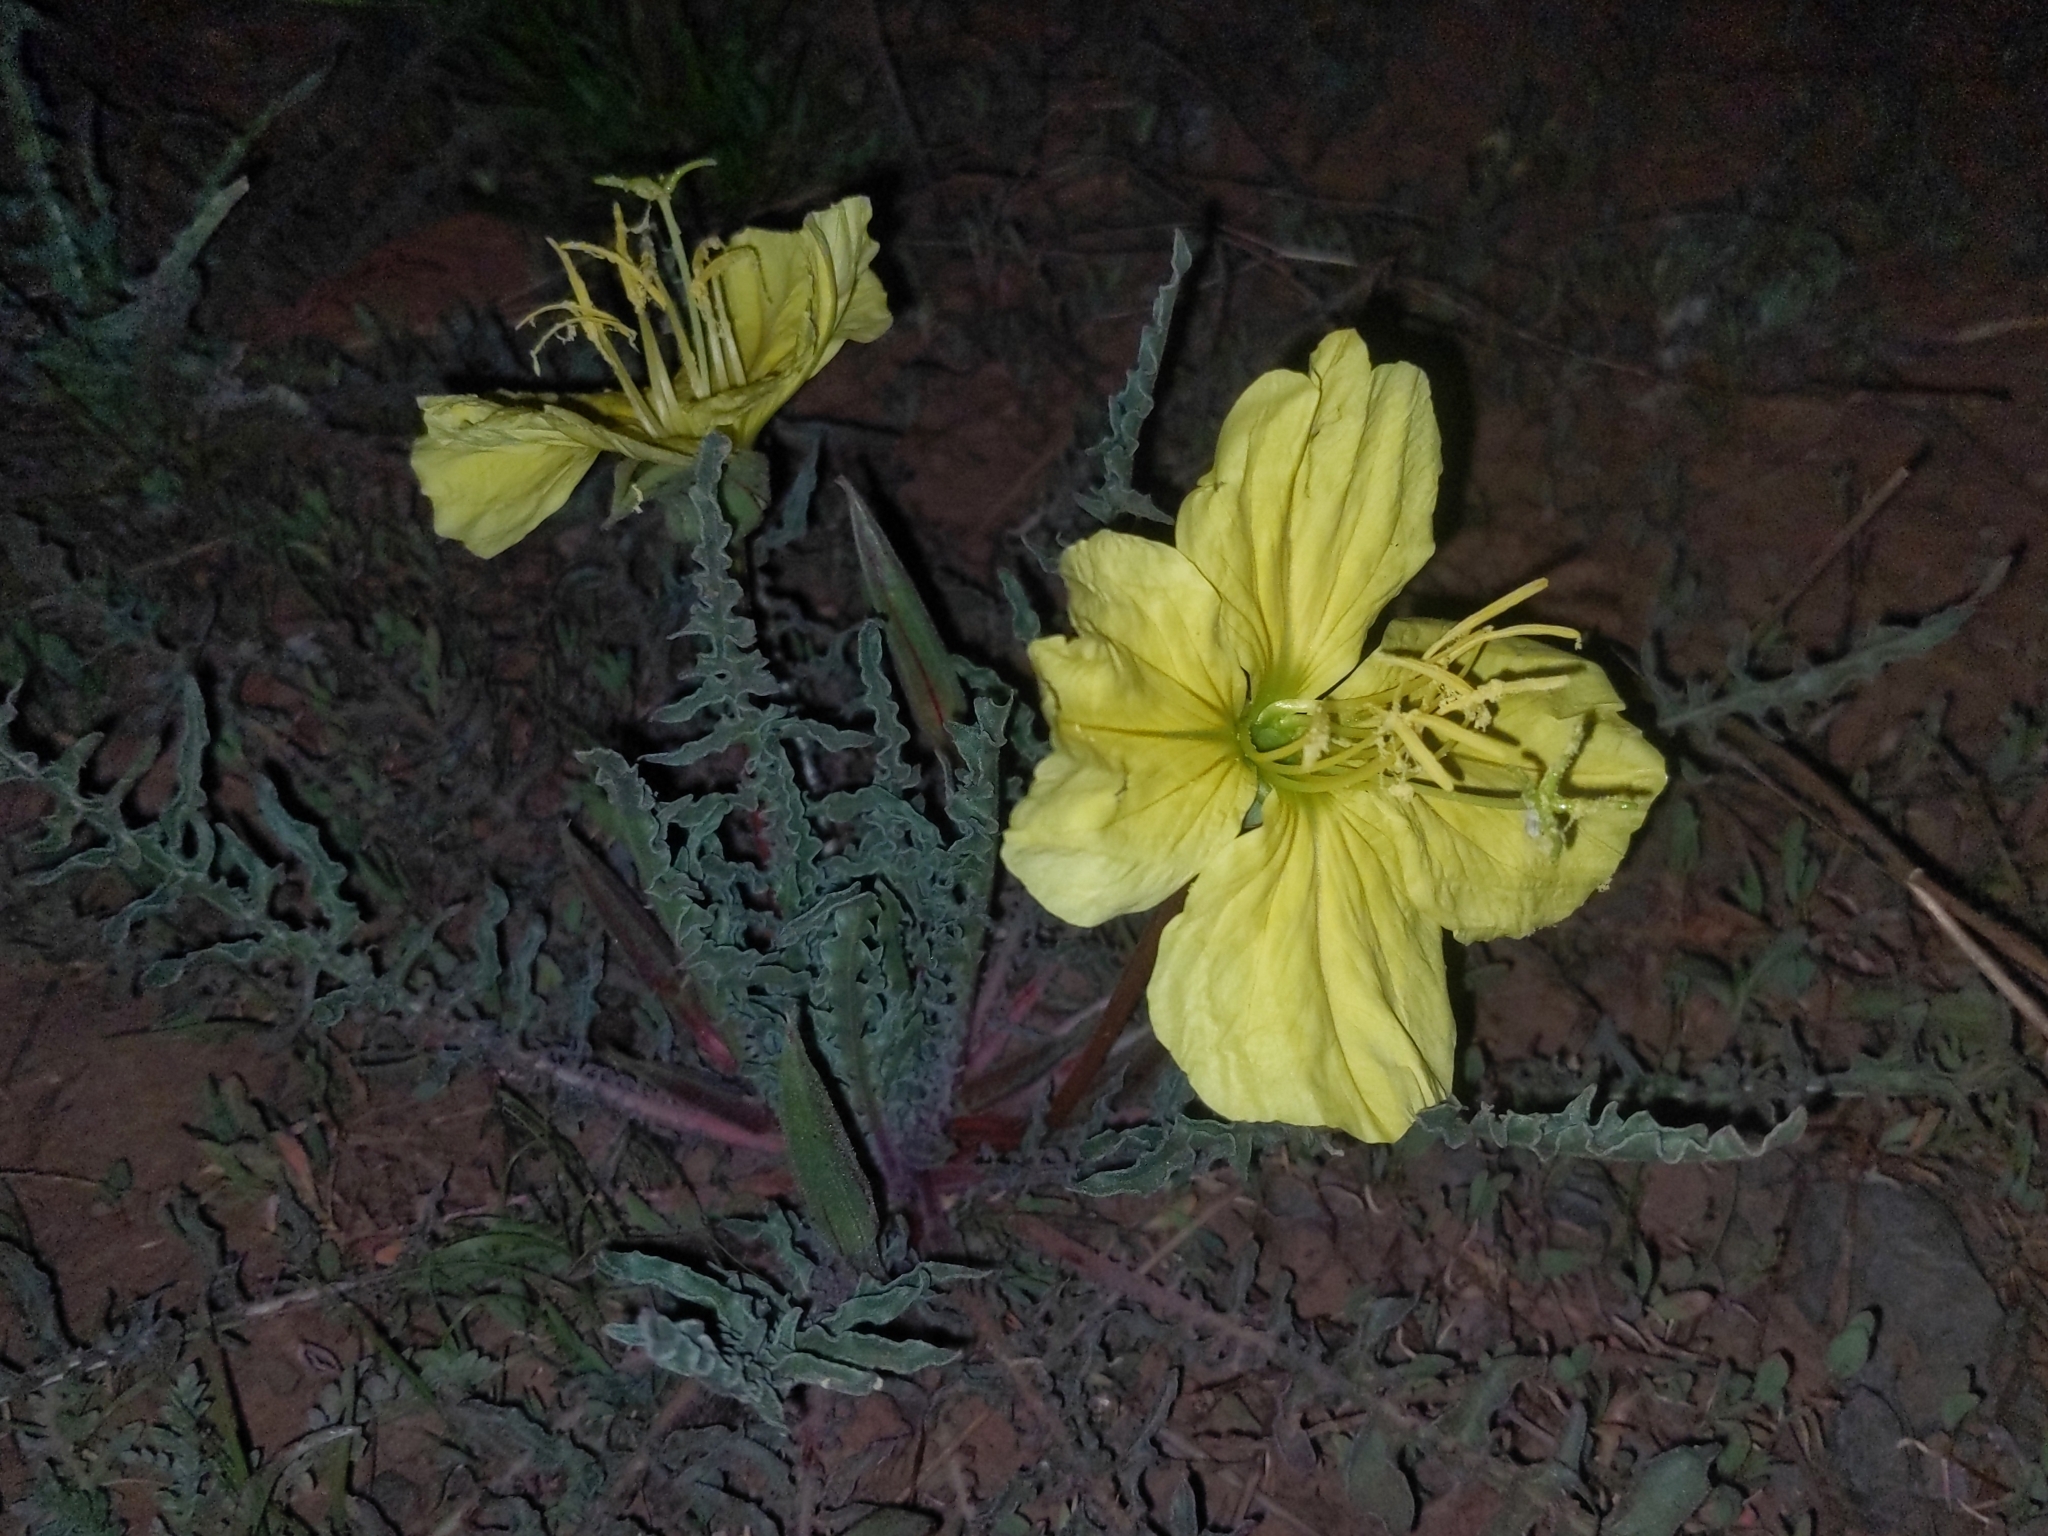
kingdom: Plantae
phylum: Tracheophyta
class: Magnoliopsida
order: Myrtales
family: Onagraceae
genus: Oenothera
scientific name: Oenothera flava
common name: Long-tubed evening-primrose
